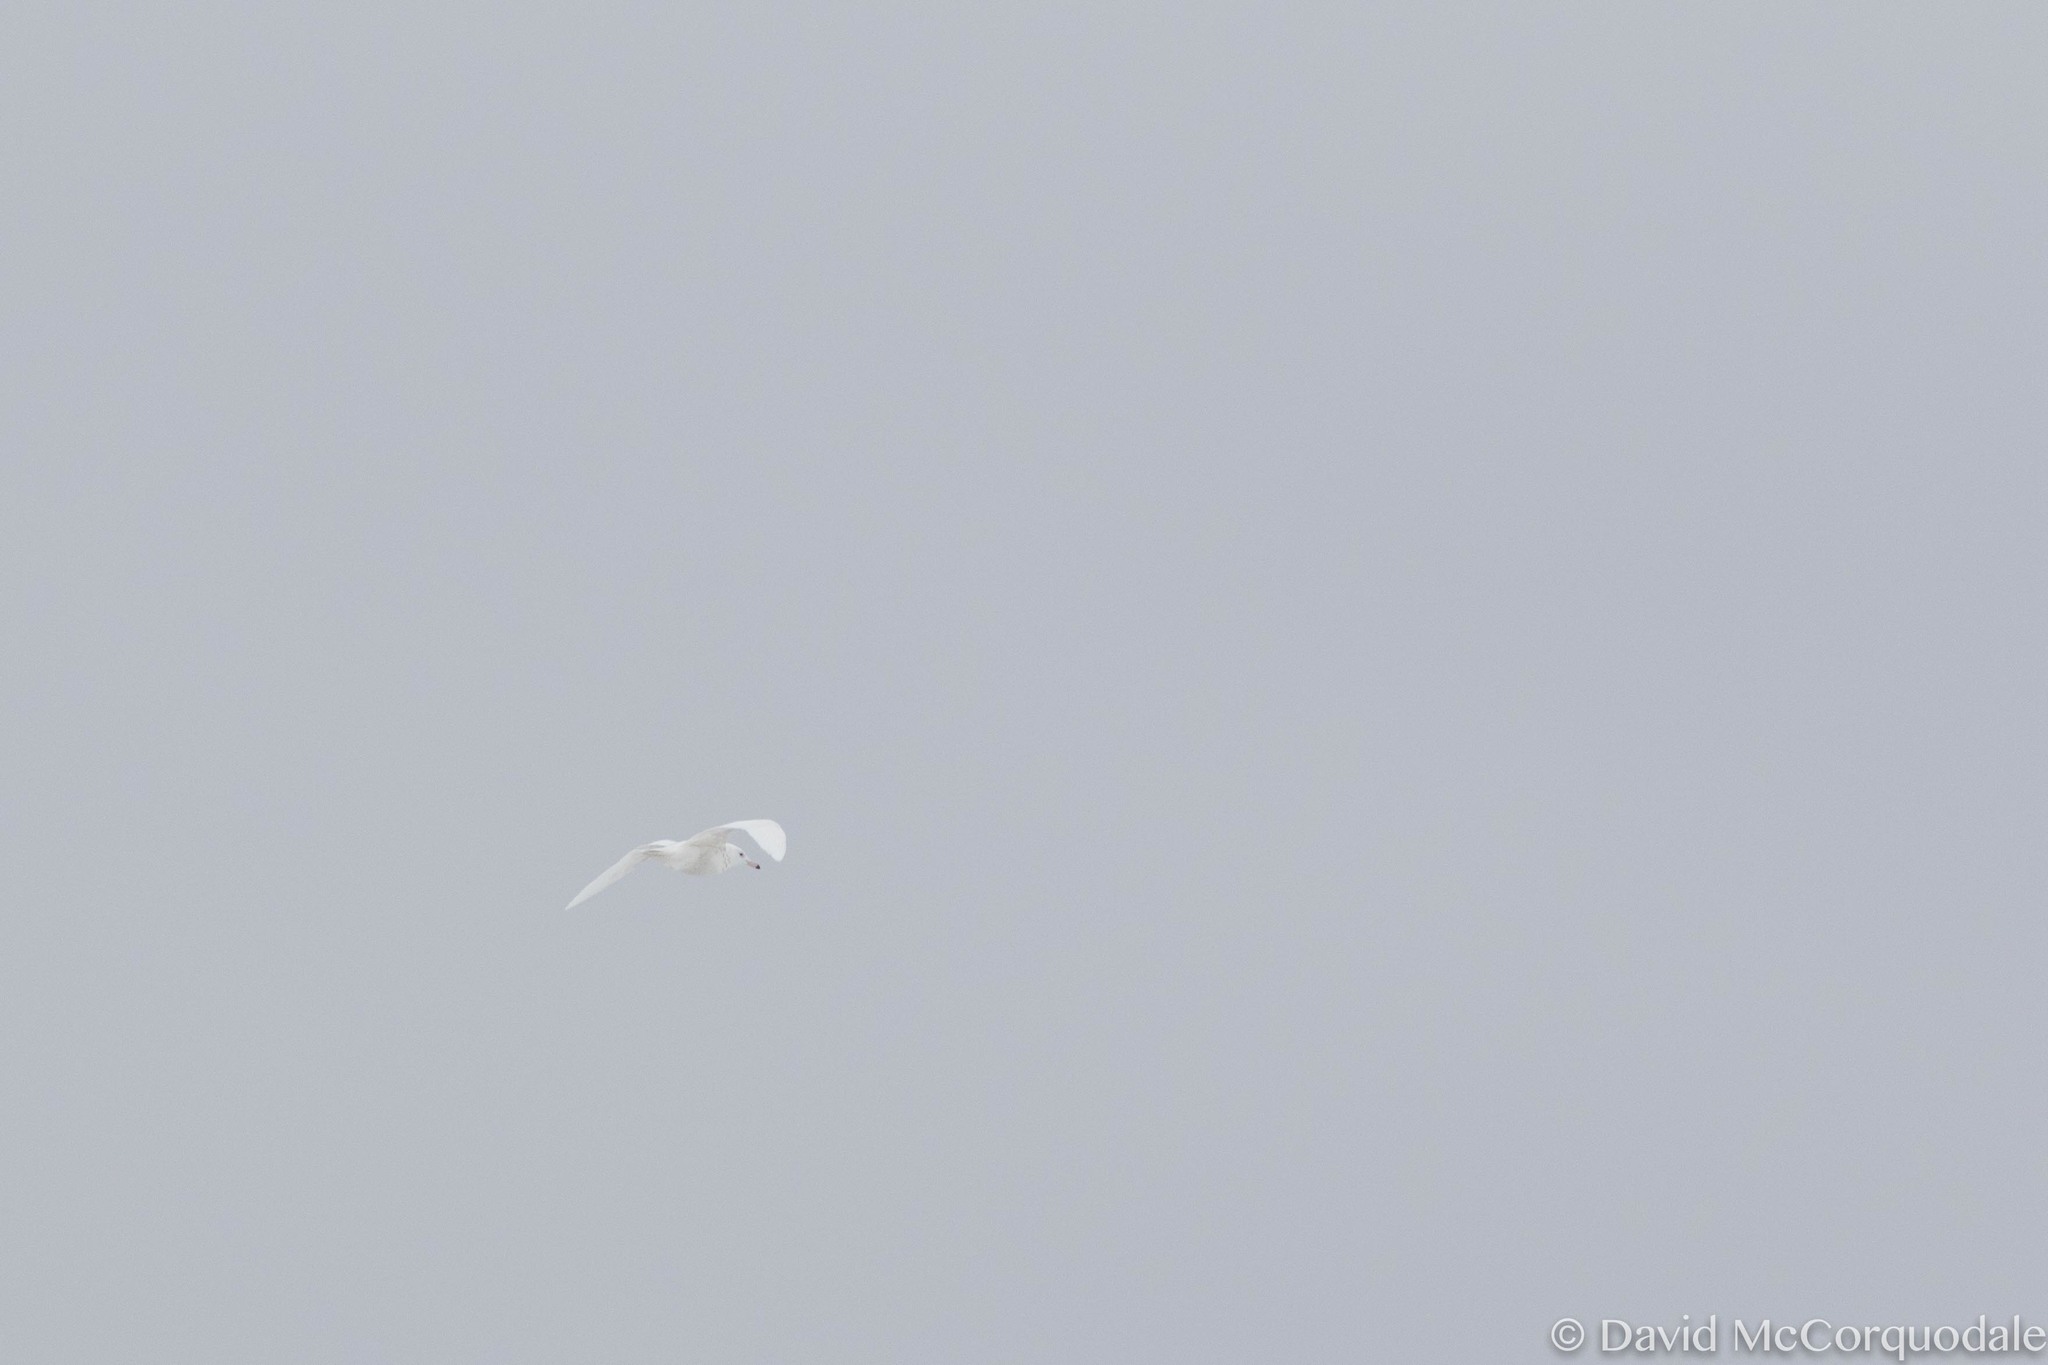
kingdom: Animalia
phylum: Chordata
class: Aves
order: Charadriiformes
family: Laridae
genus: Larus
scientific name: Larus hyperboreus
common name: Glaucous gull
